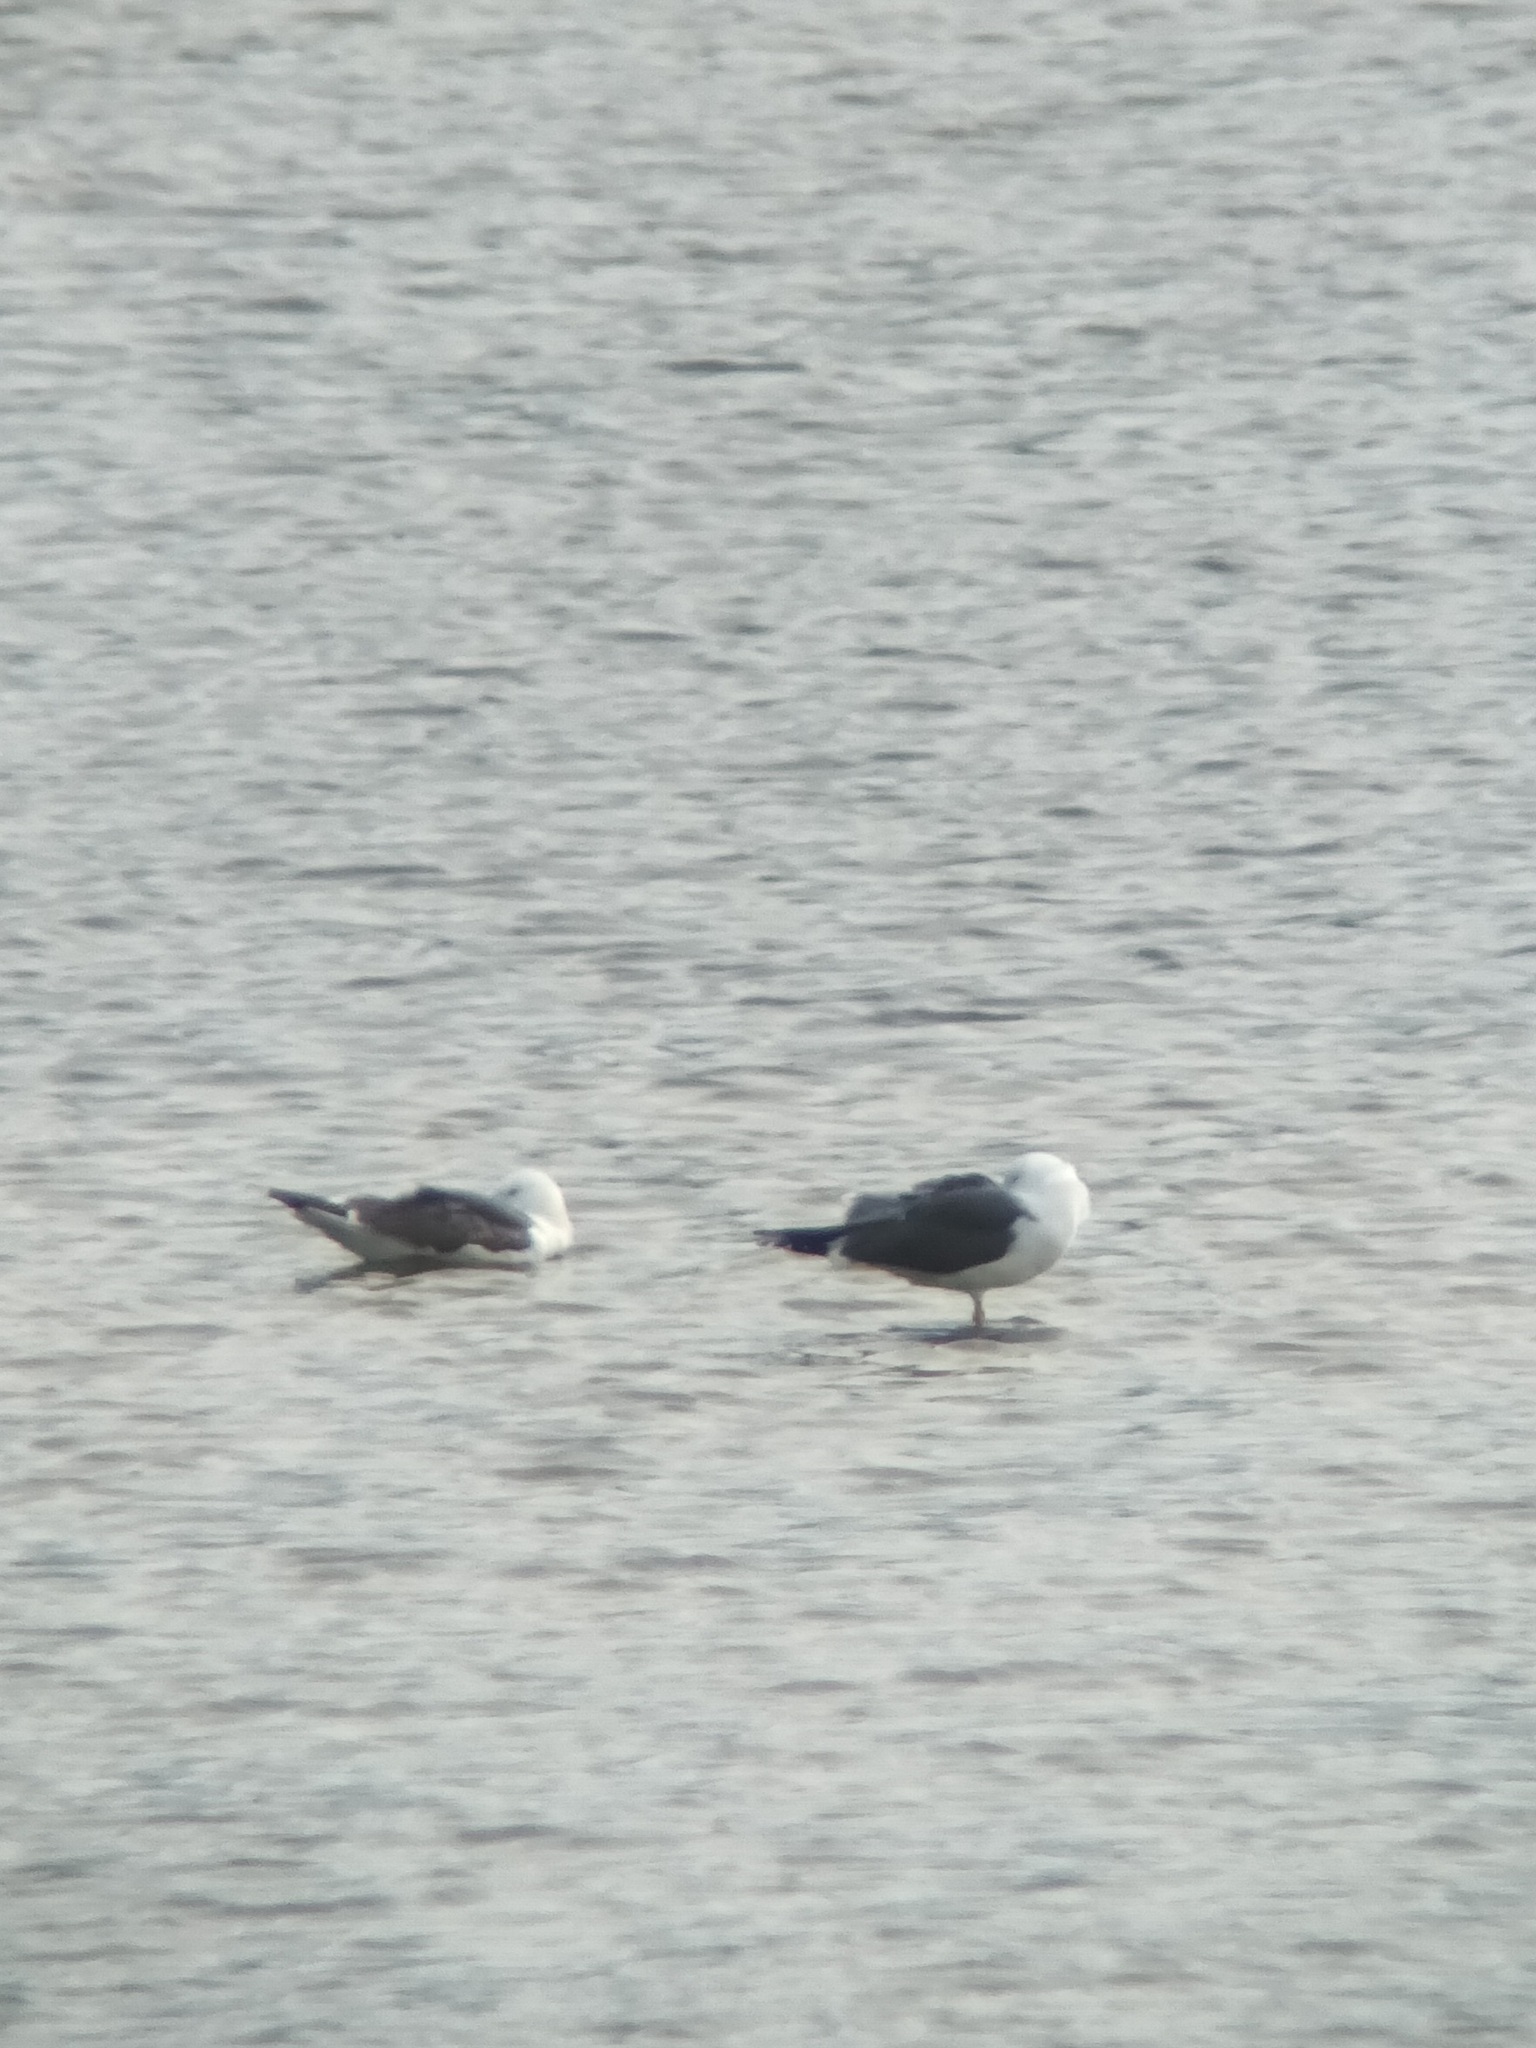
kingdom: Animalia
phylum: Chordata
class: Aves
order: Charadriiformes
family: Laridae
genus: Larus
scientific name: Larus fuscus
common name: Lesser black-backed gull
